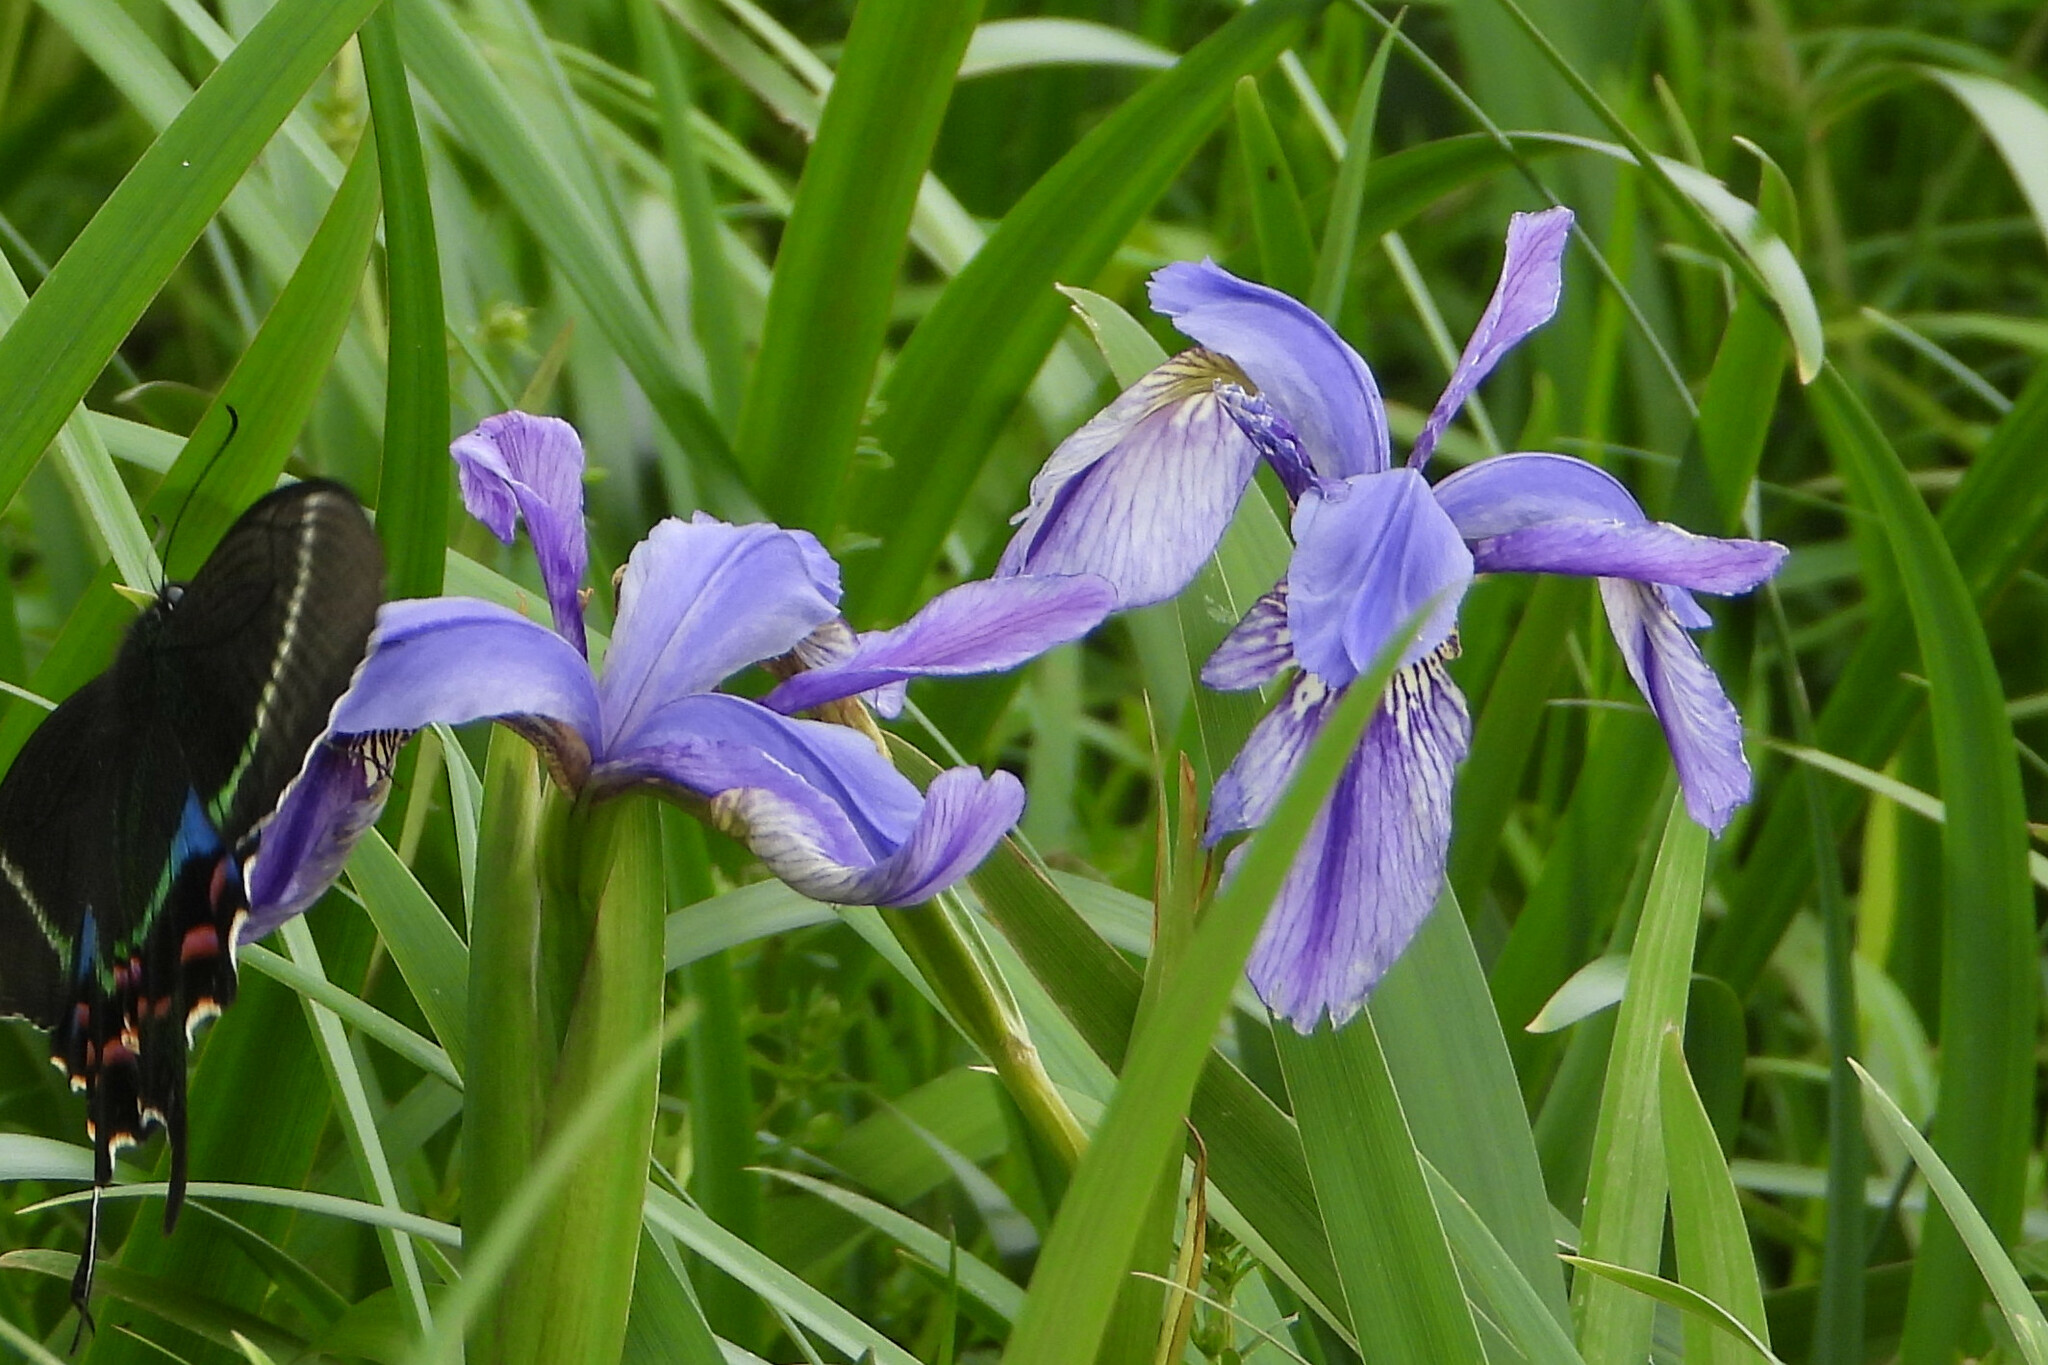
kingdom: Plantae
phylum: Tracheophyta
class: Liliopsida
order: Asparagales
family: Iridaceae
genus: Iris
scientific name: Iris clarkei
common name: Tibet iris
